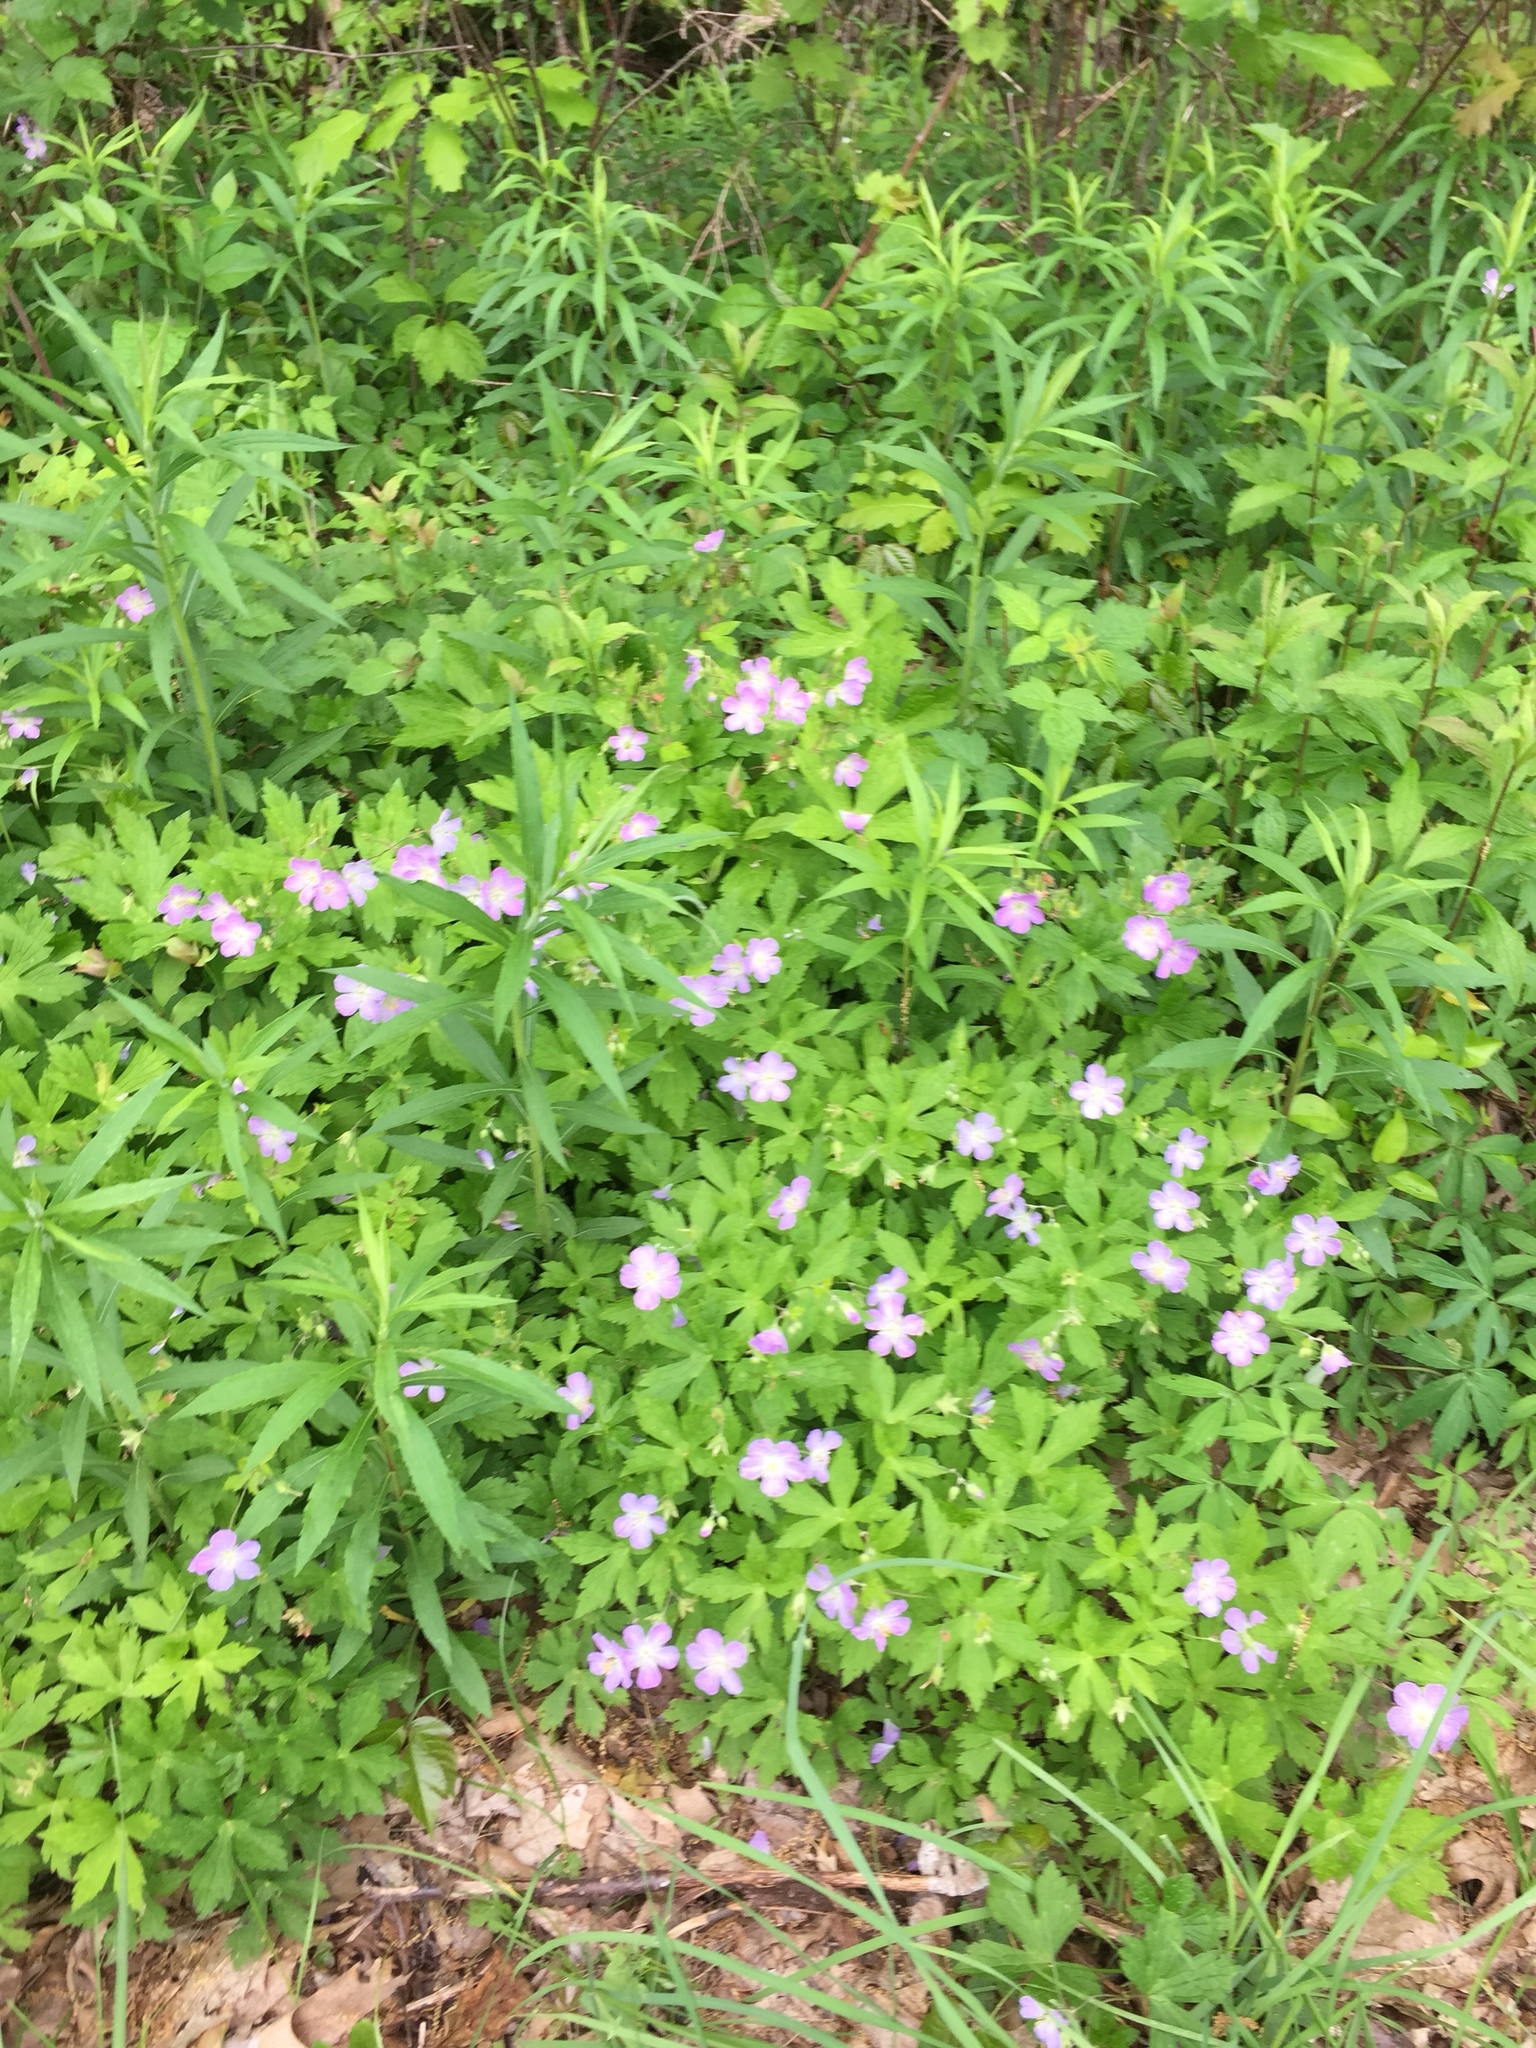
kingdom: Plantae
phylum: Tracheophyta
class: Magnoliopsida
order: Geraniales
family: Geraniaceae
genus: Geranium
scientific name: Geranium maculatum
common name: Spotted geranium
